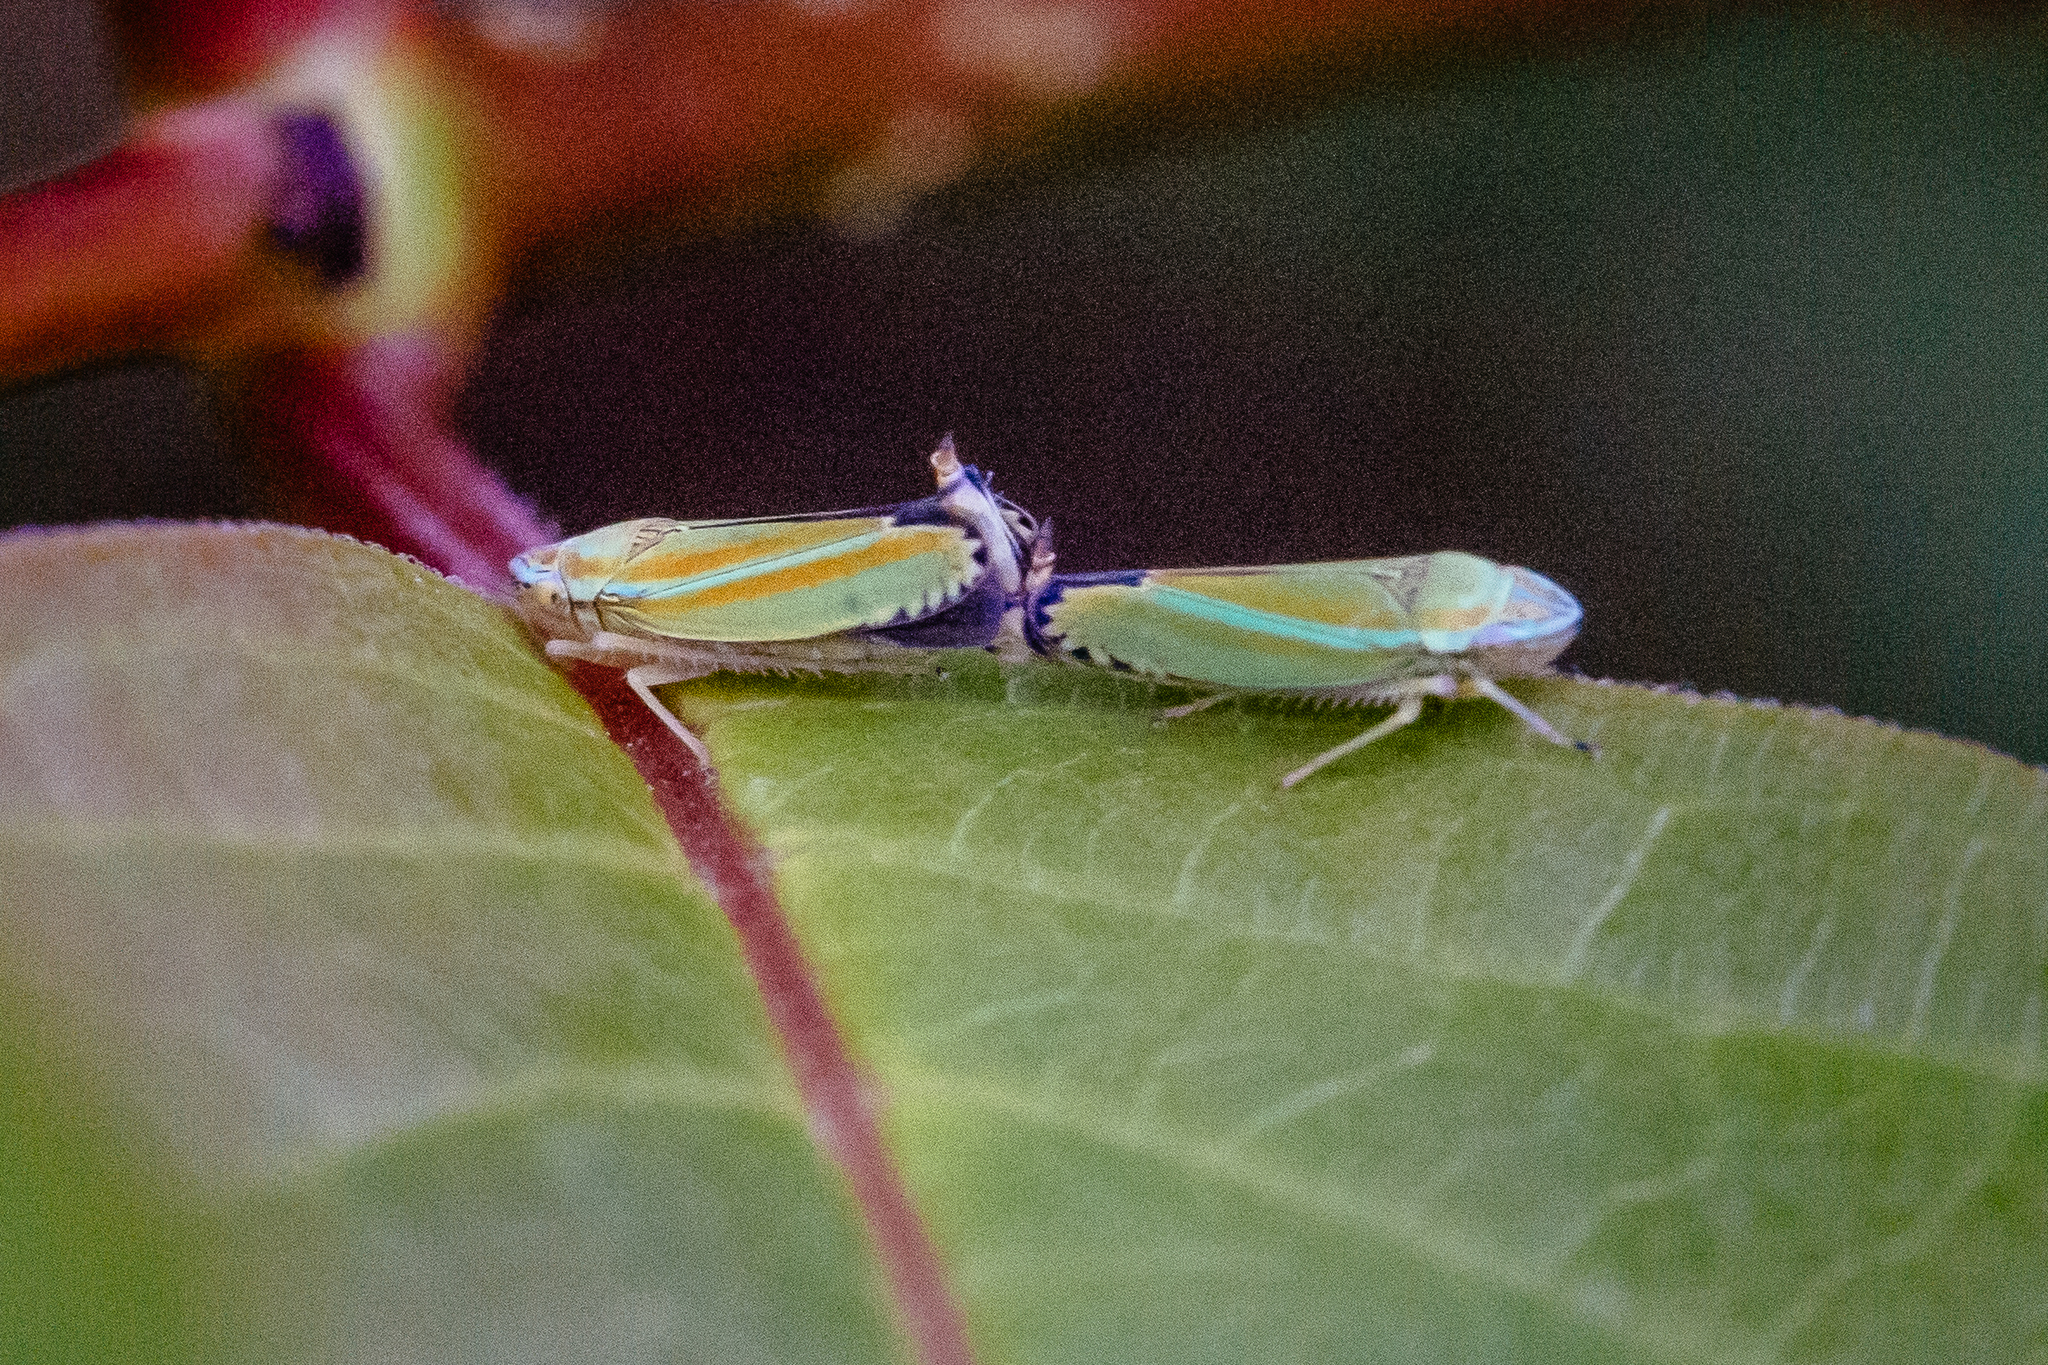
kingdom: Animalia
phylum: Arthropoda
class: Insecta
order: Hemiptera
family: Cicadellidae
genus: Graphocephala
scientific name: Graphocephala versuta
